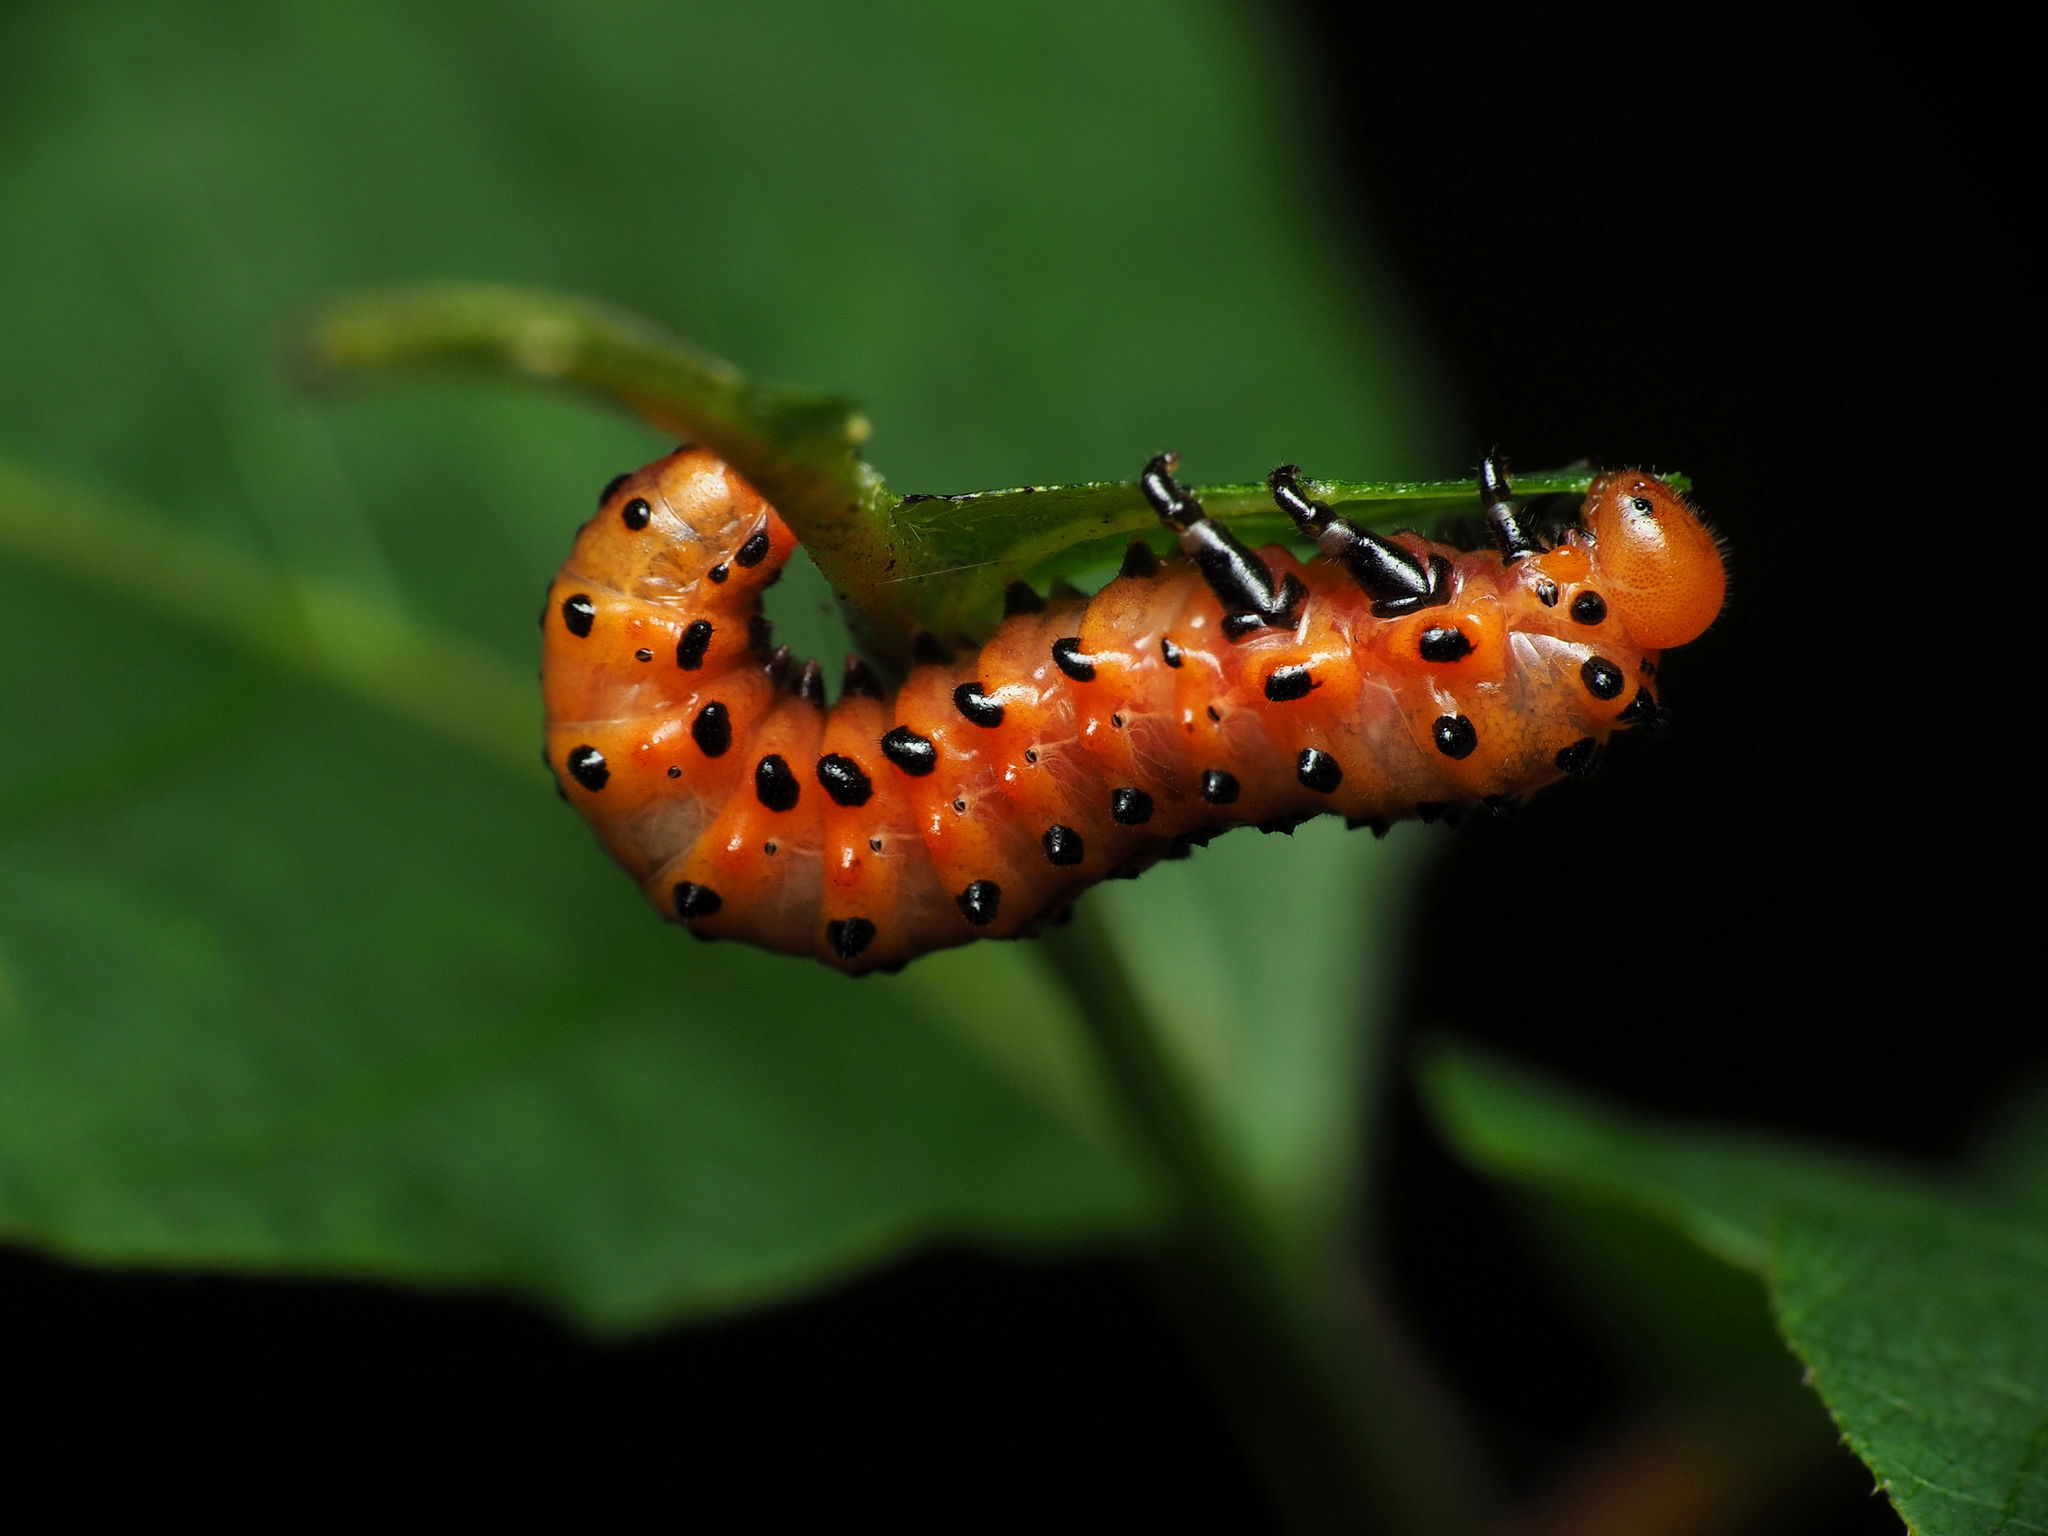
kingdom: Animalia
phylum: Arthropoda
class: Insecta
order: Hymenoptera
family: Argidae
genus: Arge
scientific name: Arge humeralis
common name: Poison ivy sawfly
